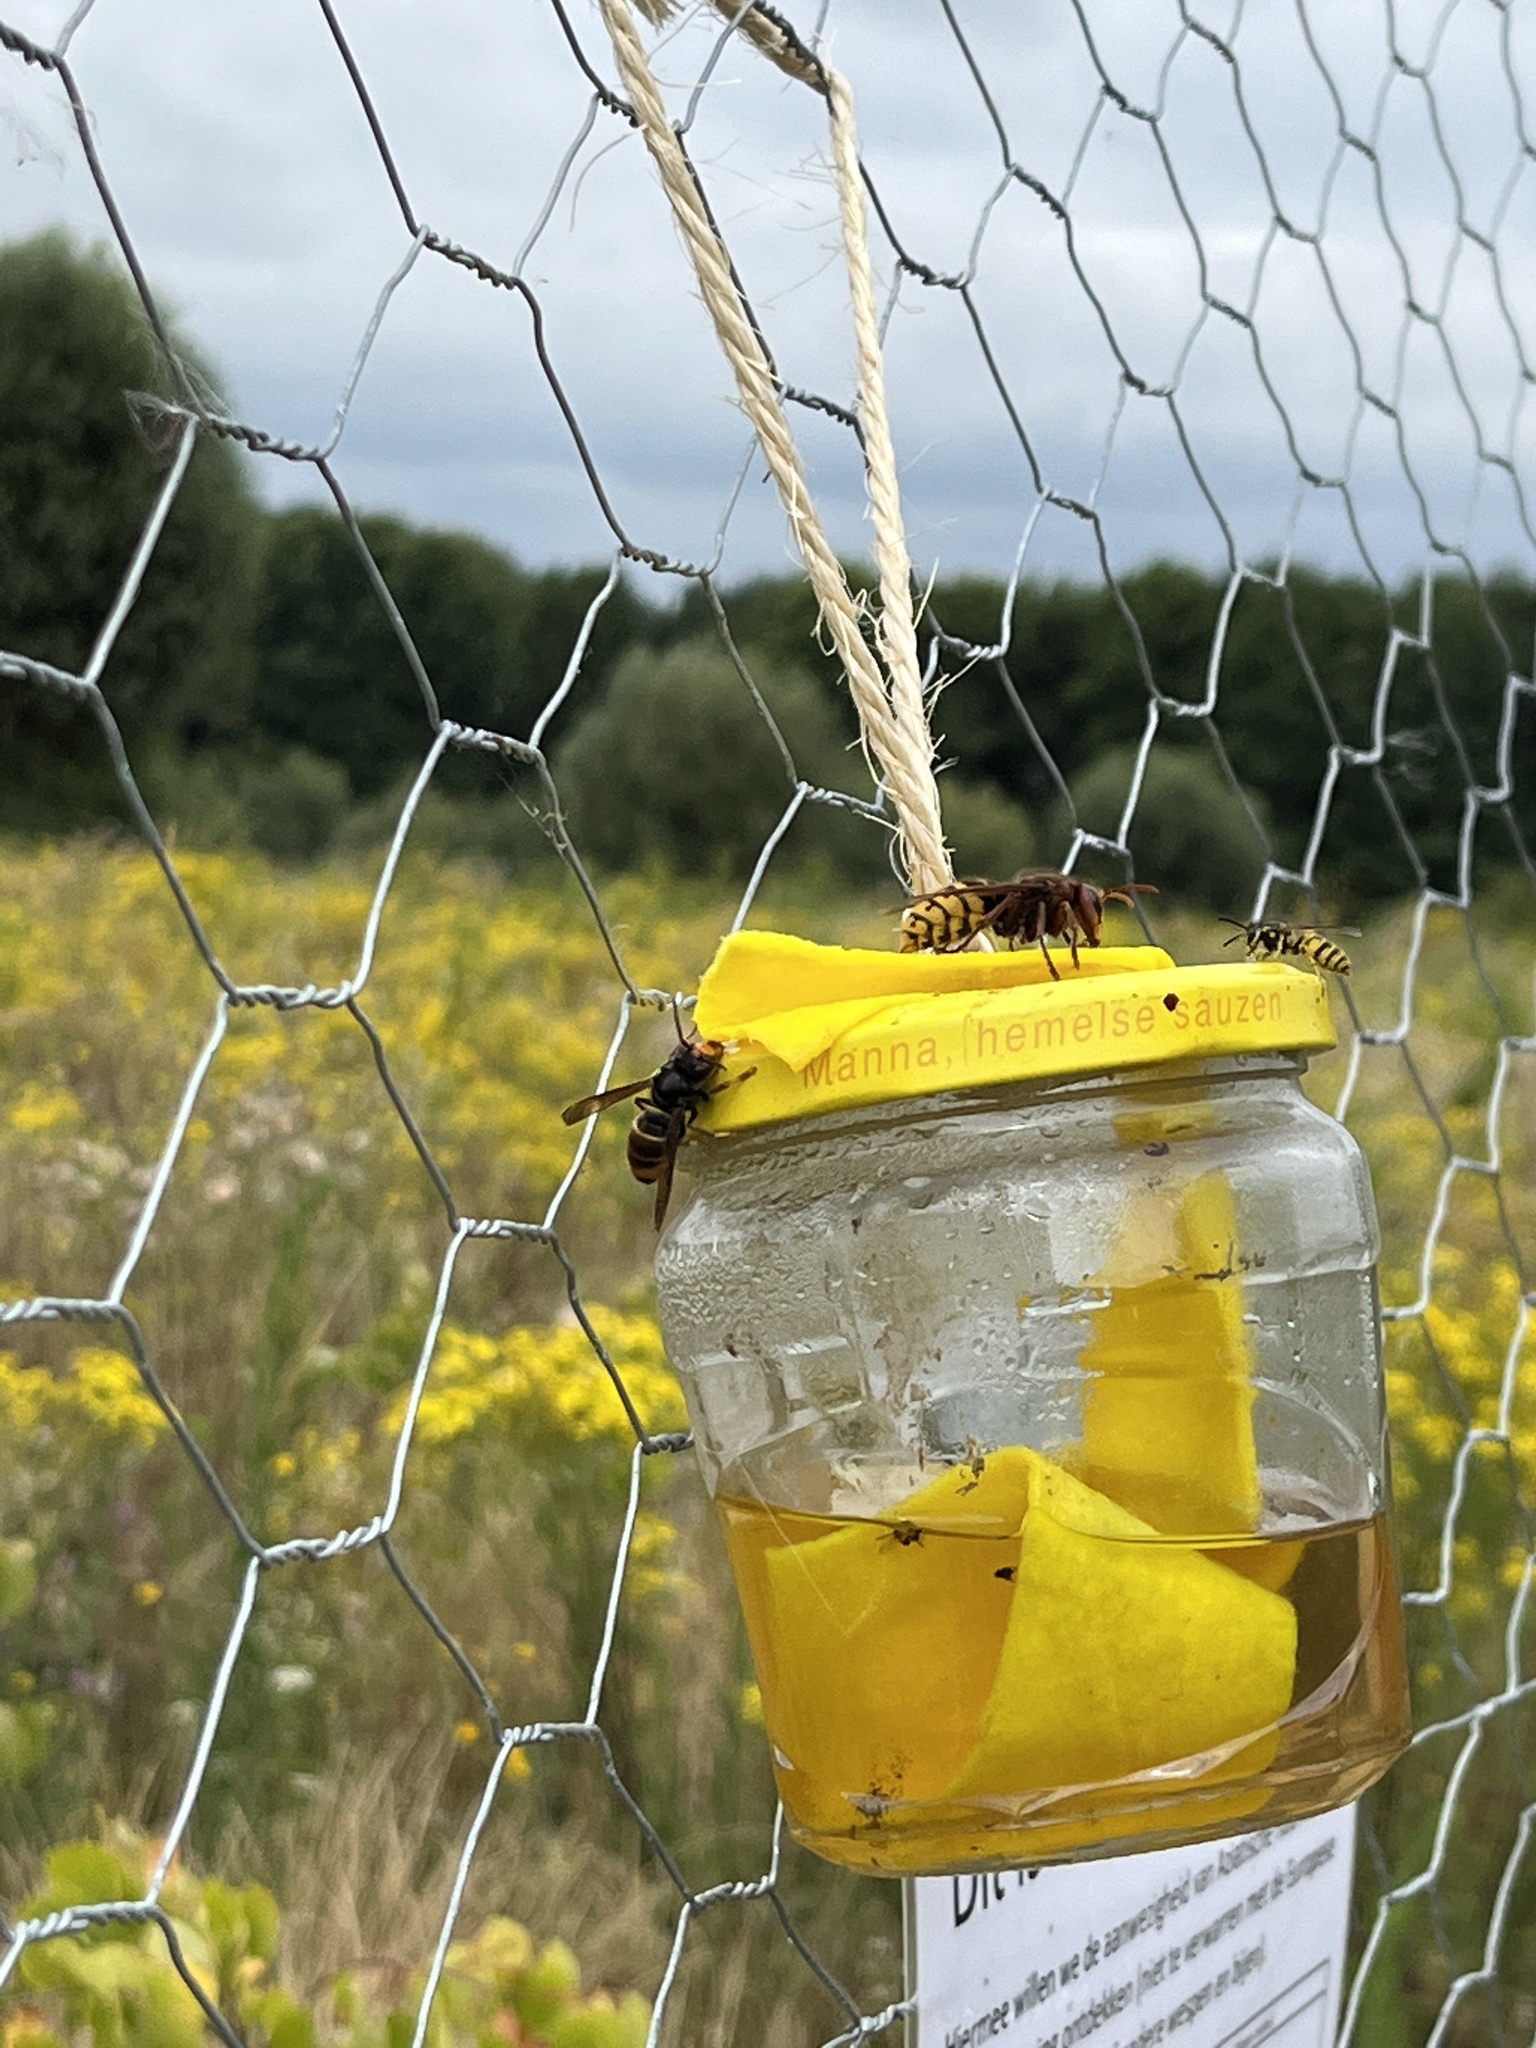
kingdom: Animalia
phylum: Arthropoda
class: Insecta
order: Hymenoptera
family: Vespidae
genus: Vespa
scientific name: Vespa velutina
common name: Asian hornet
